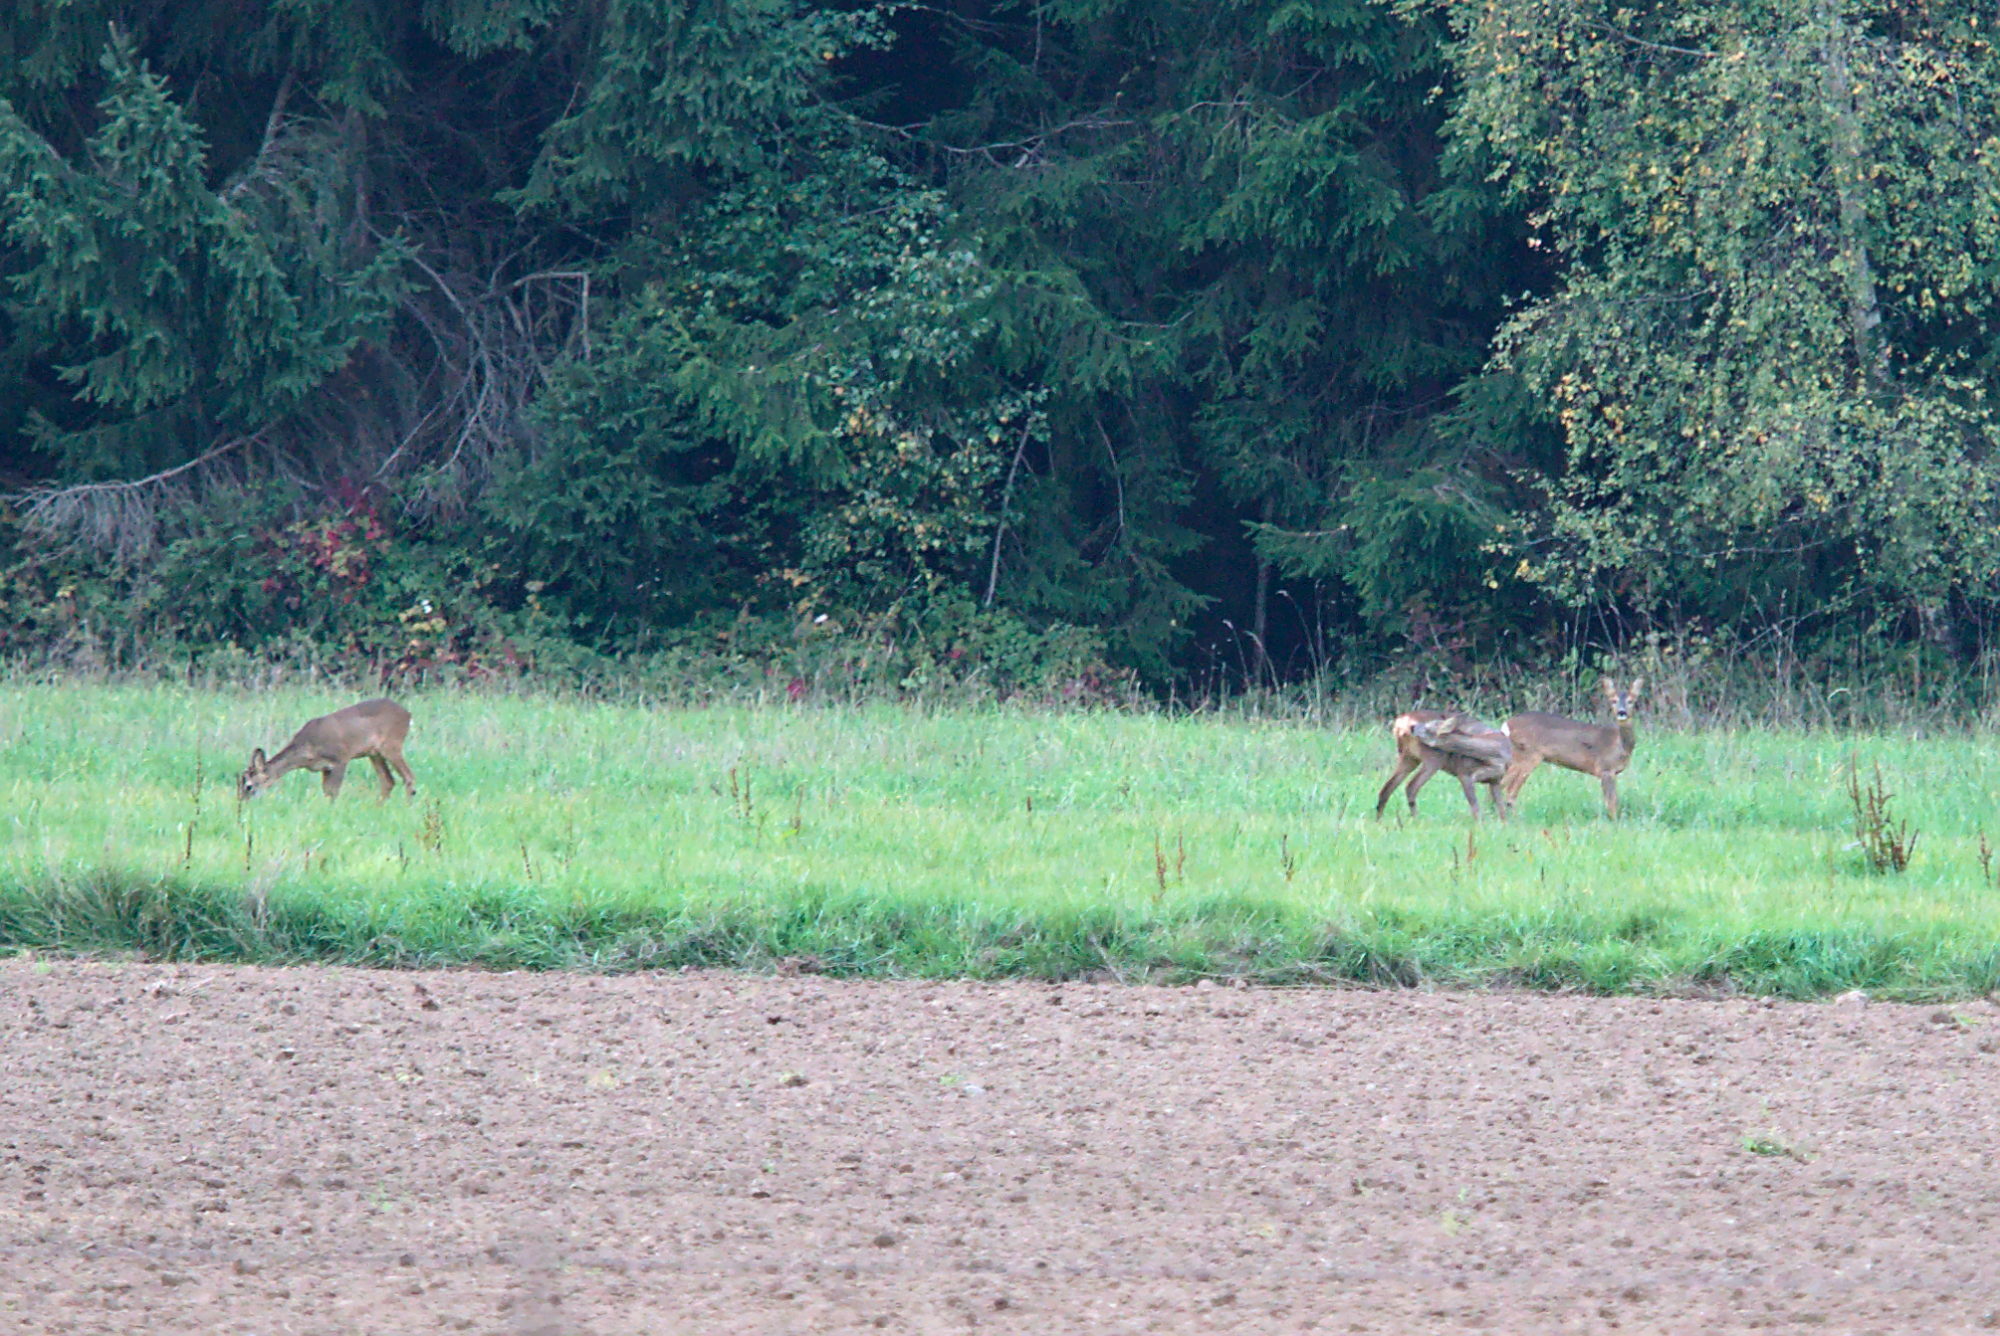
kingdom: Animalia
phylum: Chordata
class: Mammalia
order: Artiodactyla
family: Cervidae
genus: Capreolus
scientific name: Capreolus capreolus
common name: Western roe deer
